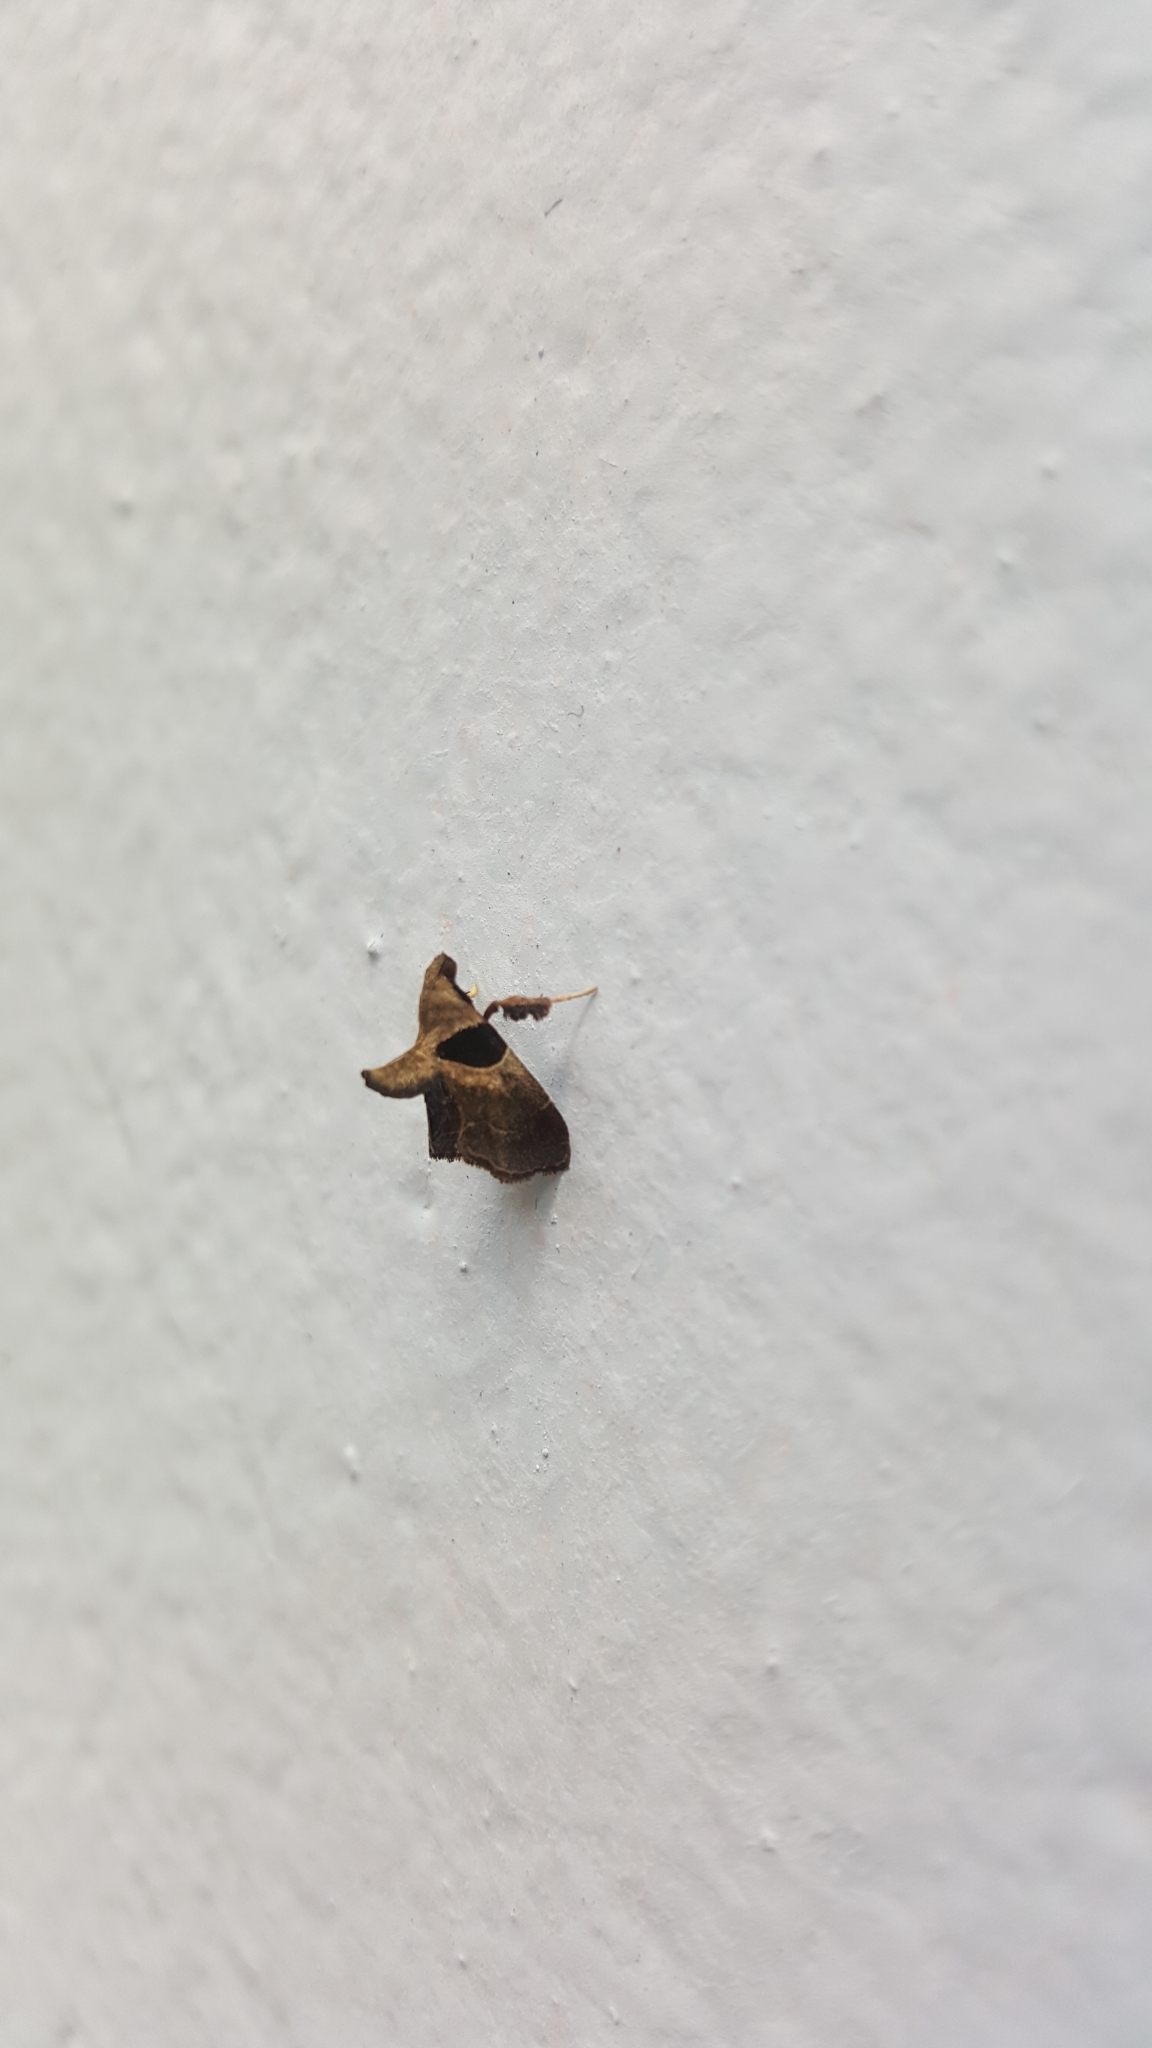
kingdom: Animalia
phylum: Arthropoda
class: Insecta
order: Lepidoptera
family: Pyralidae
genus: Tosale
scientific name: Tosale oviplagalis
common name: Dimorphic tosale moth
